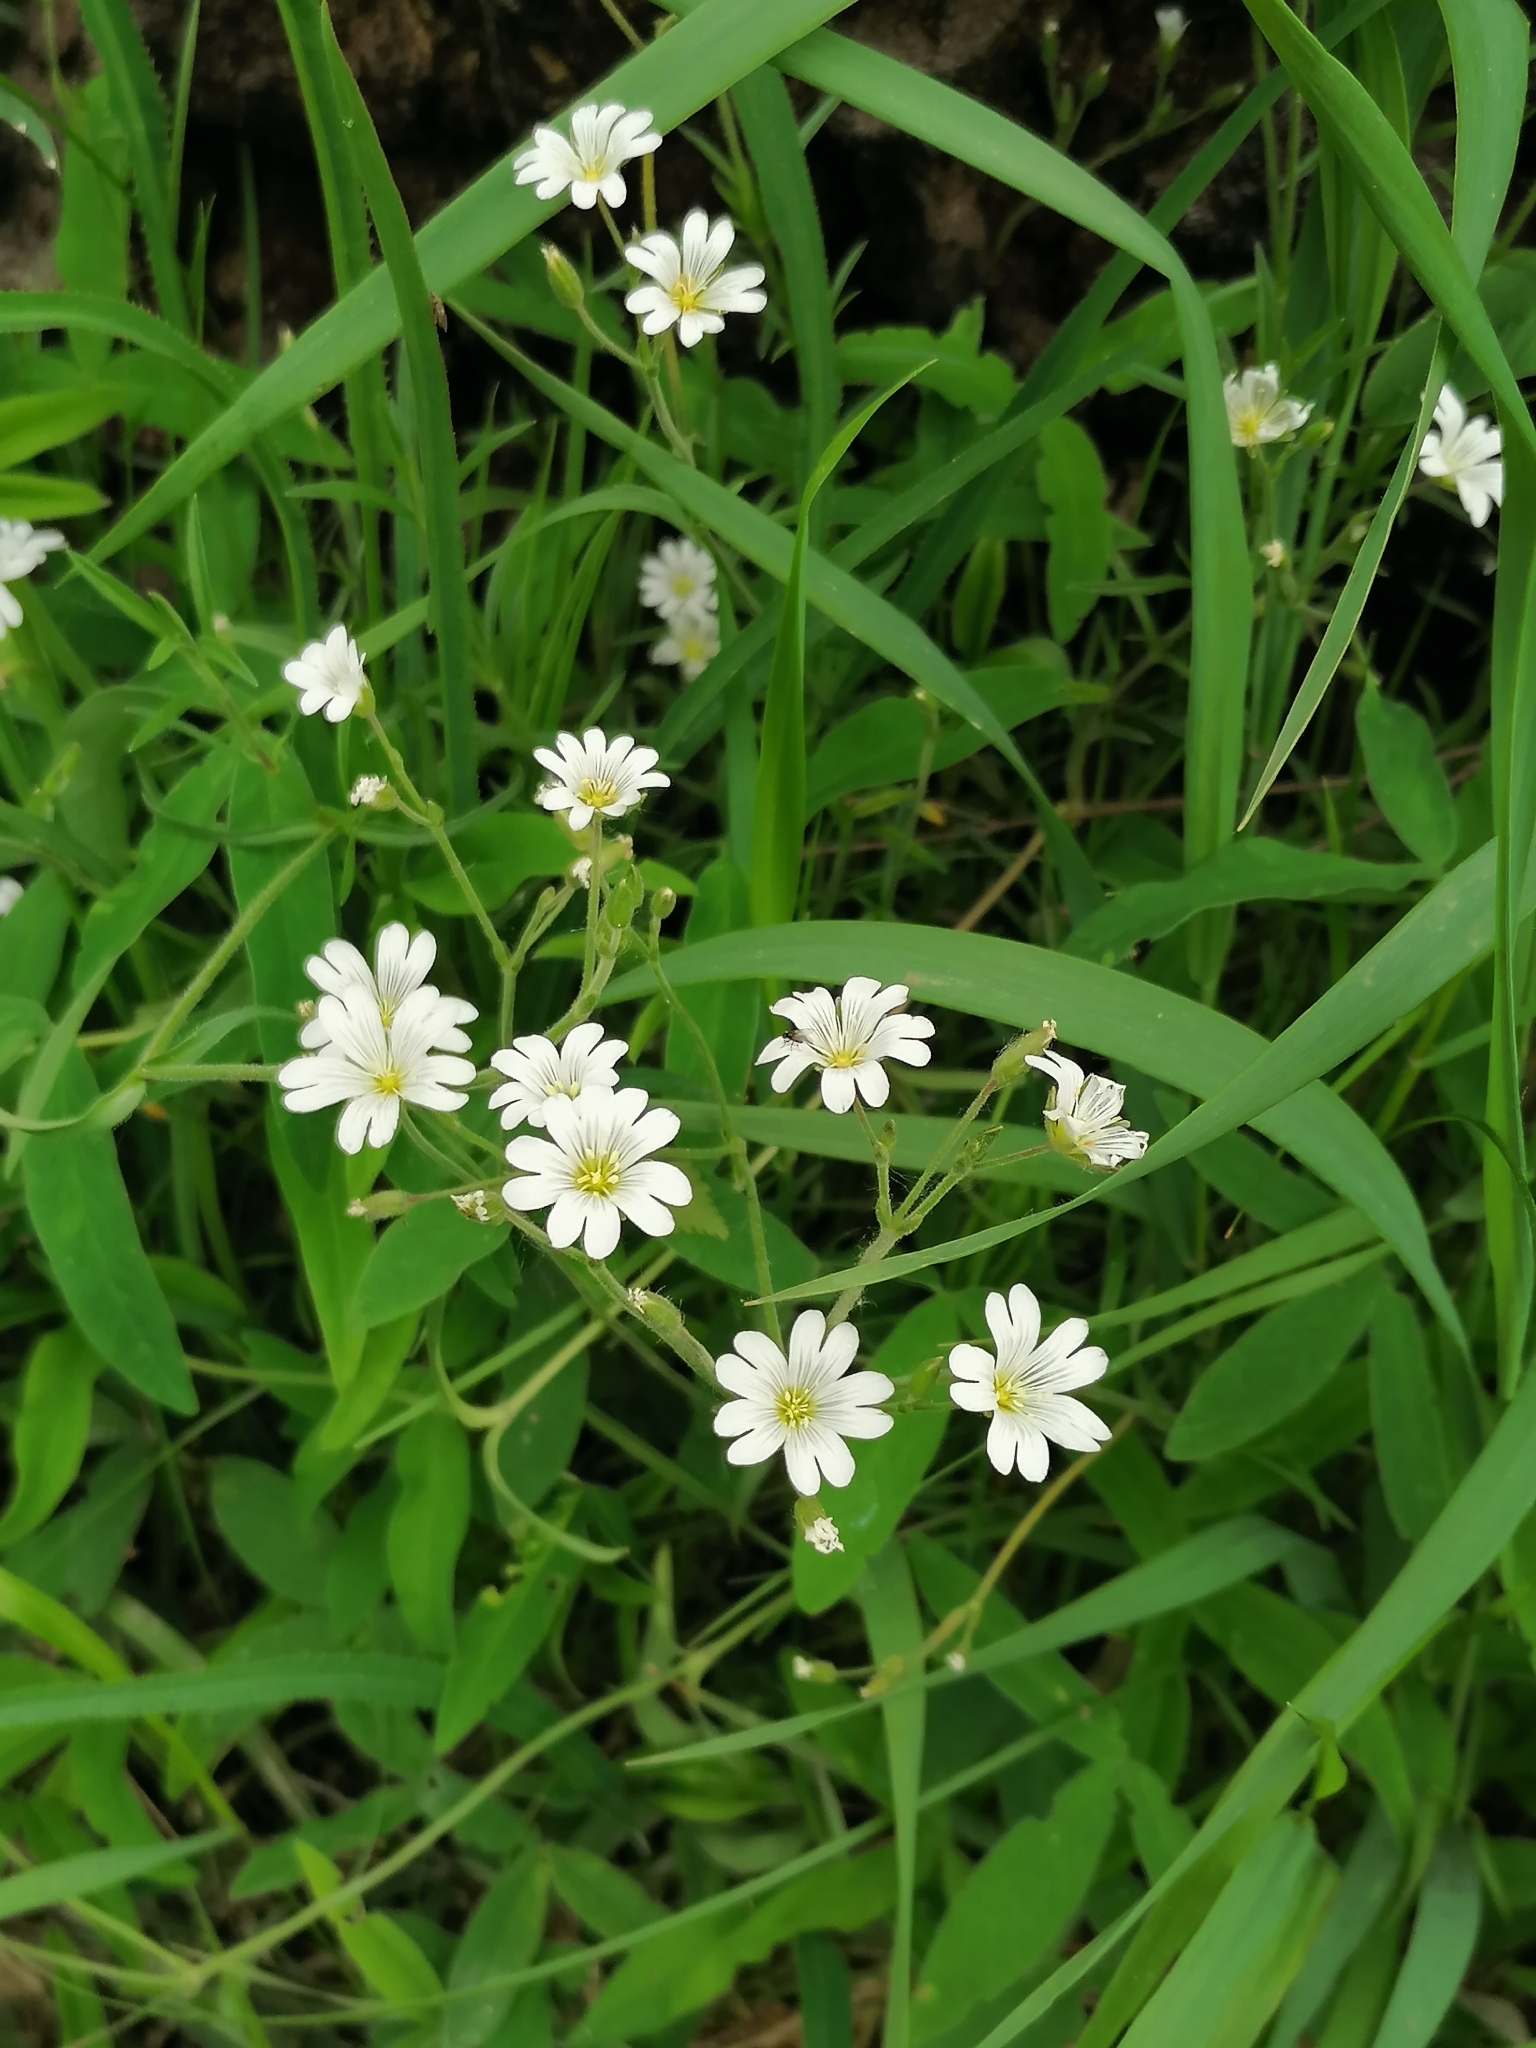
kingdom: Plantae
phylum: Tracheophyta
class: Magnoliopsida
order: Caryophyllales
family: Caryophyllaceae
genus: Cerastium
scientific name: Cerastium arvense
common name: Field mouse-ear
